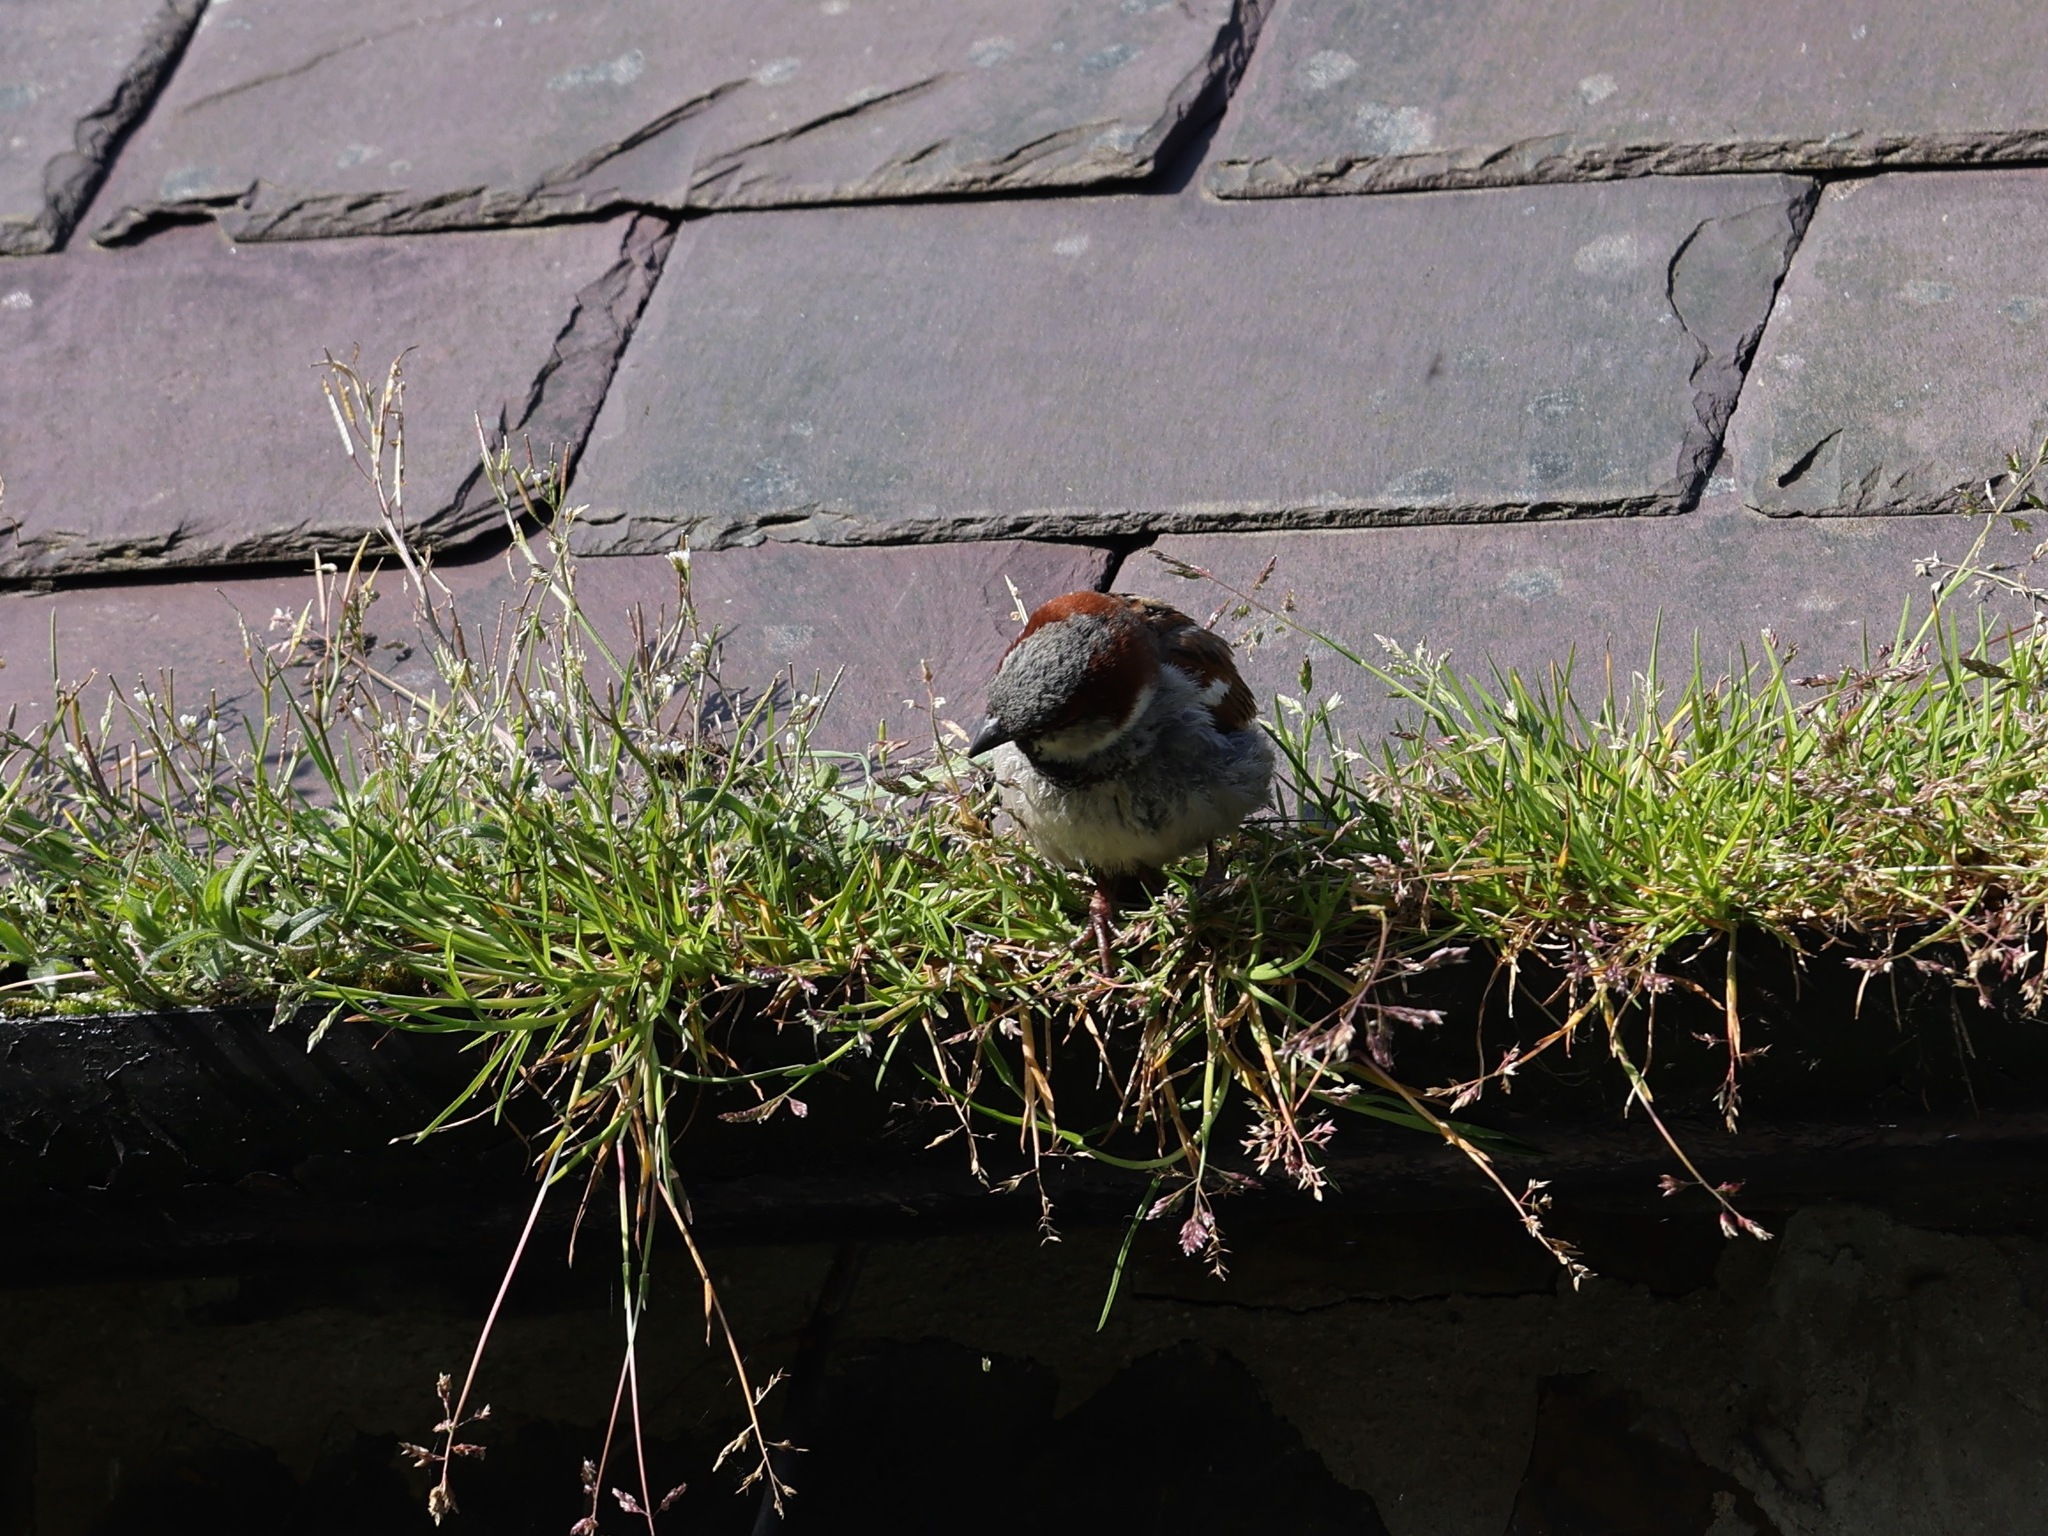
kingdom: Animalia
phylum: Chordata
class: Aves
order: Passeriformes
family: Passeridae
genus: Passer
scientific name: Passer domesticus
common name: House sparrow
